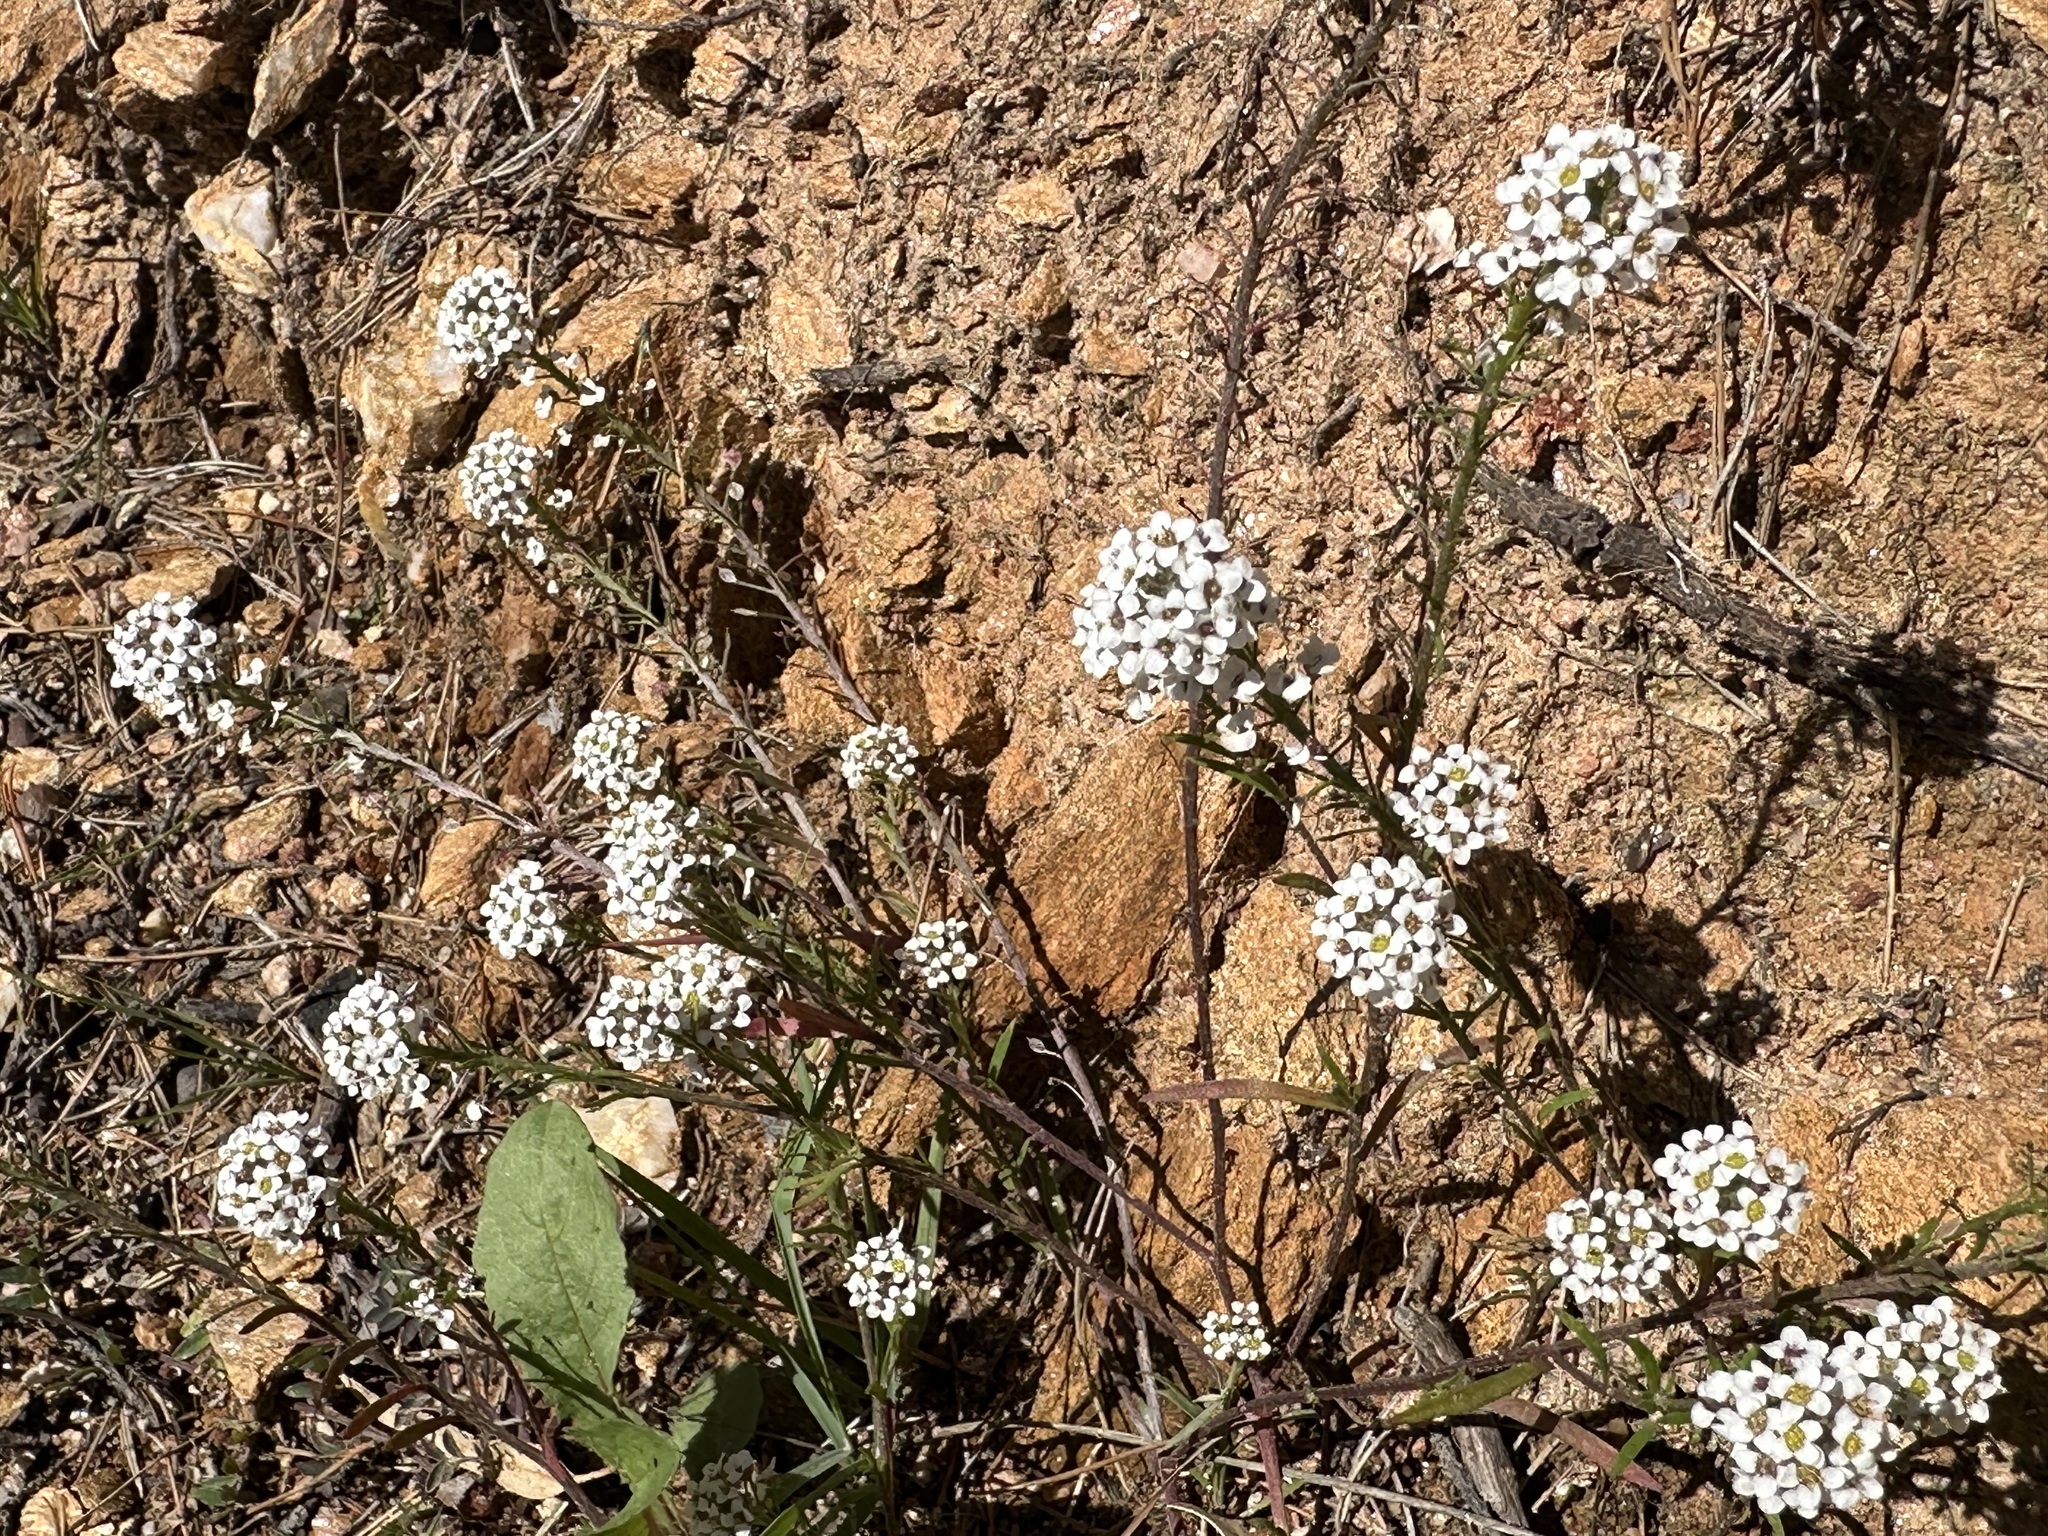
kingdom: Plantae
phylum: Tracheophyta
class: Magnoliopsida
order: Brassicales
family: Brassicaceae
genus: Lobularia
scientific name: Lobularia maritima
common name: Sweet alison
